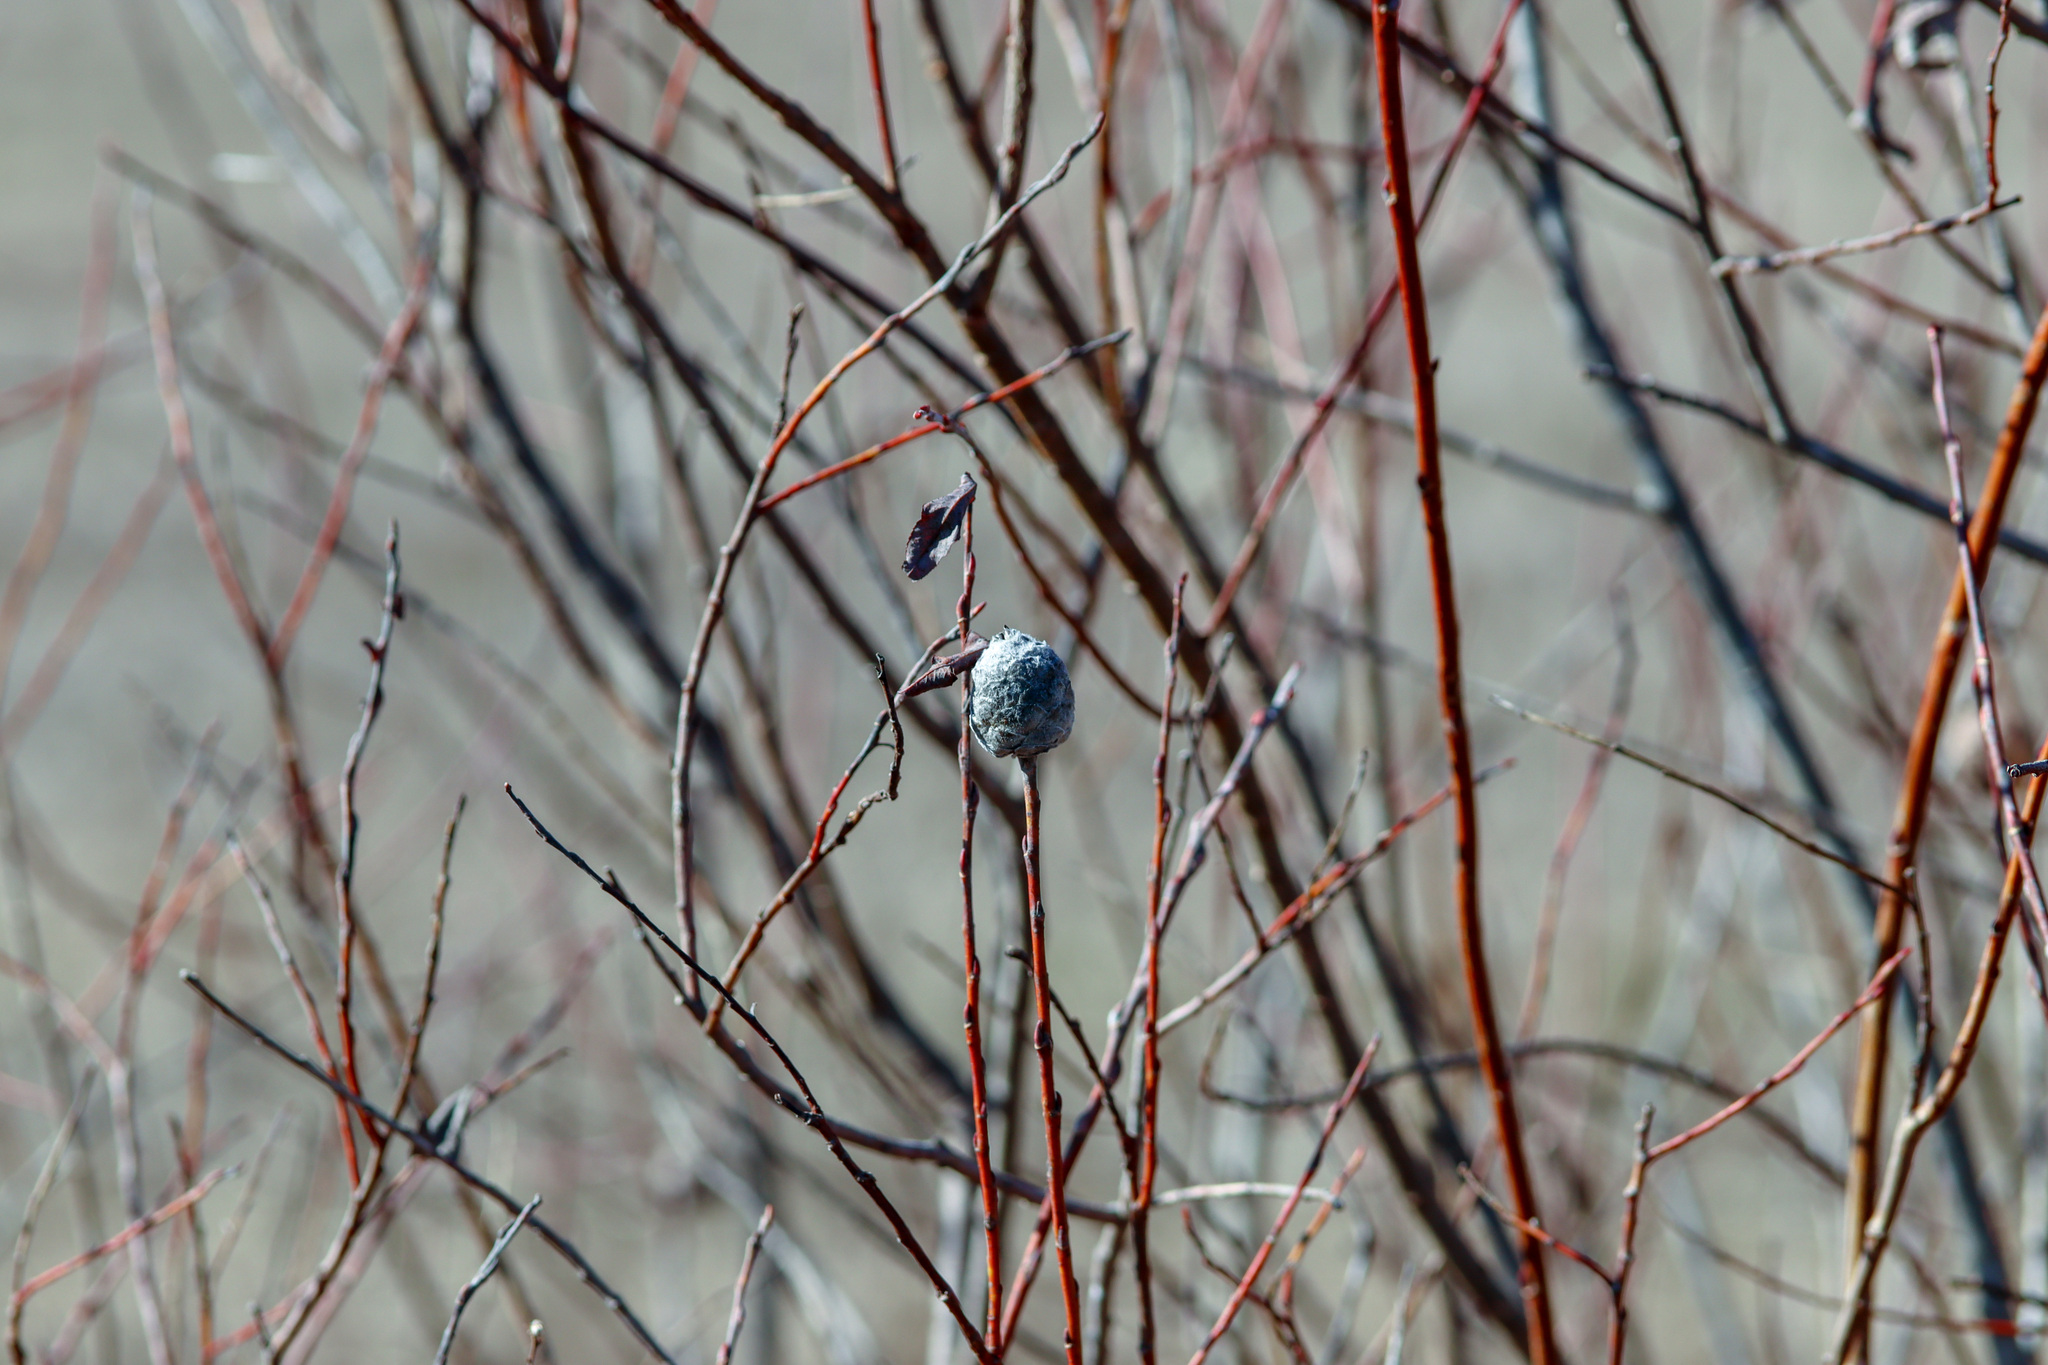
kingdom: Animalia
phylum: Arthropoda
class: Insecta
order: Diptera
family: Cecidomyiidae
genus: Rabdophaga
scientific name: Rabdophaga strobiloides
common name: Willow pinecone gall midge
